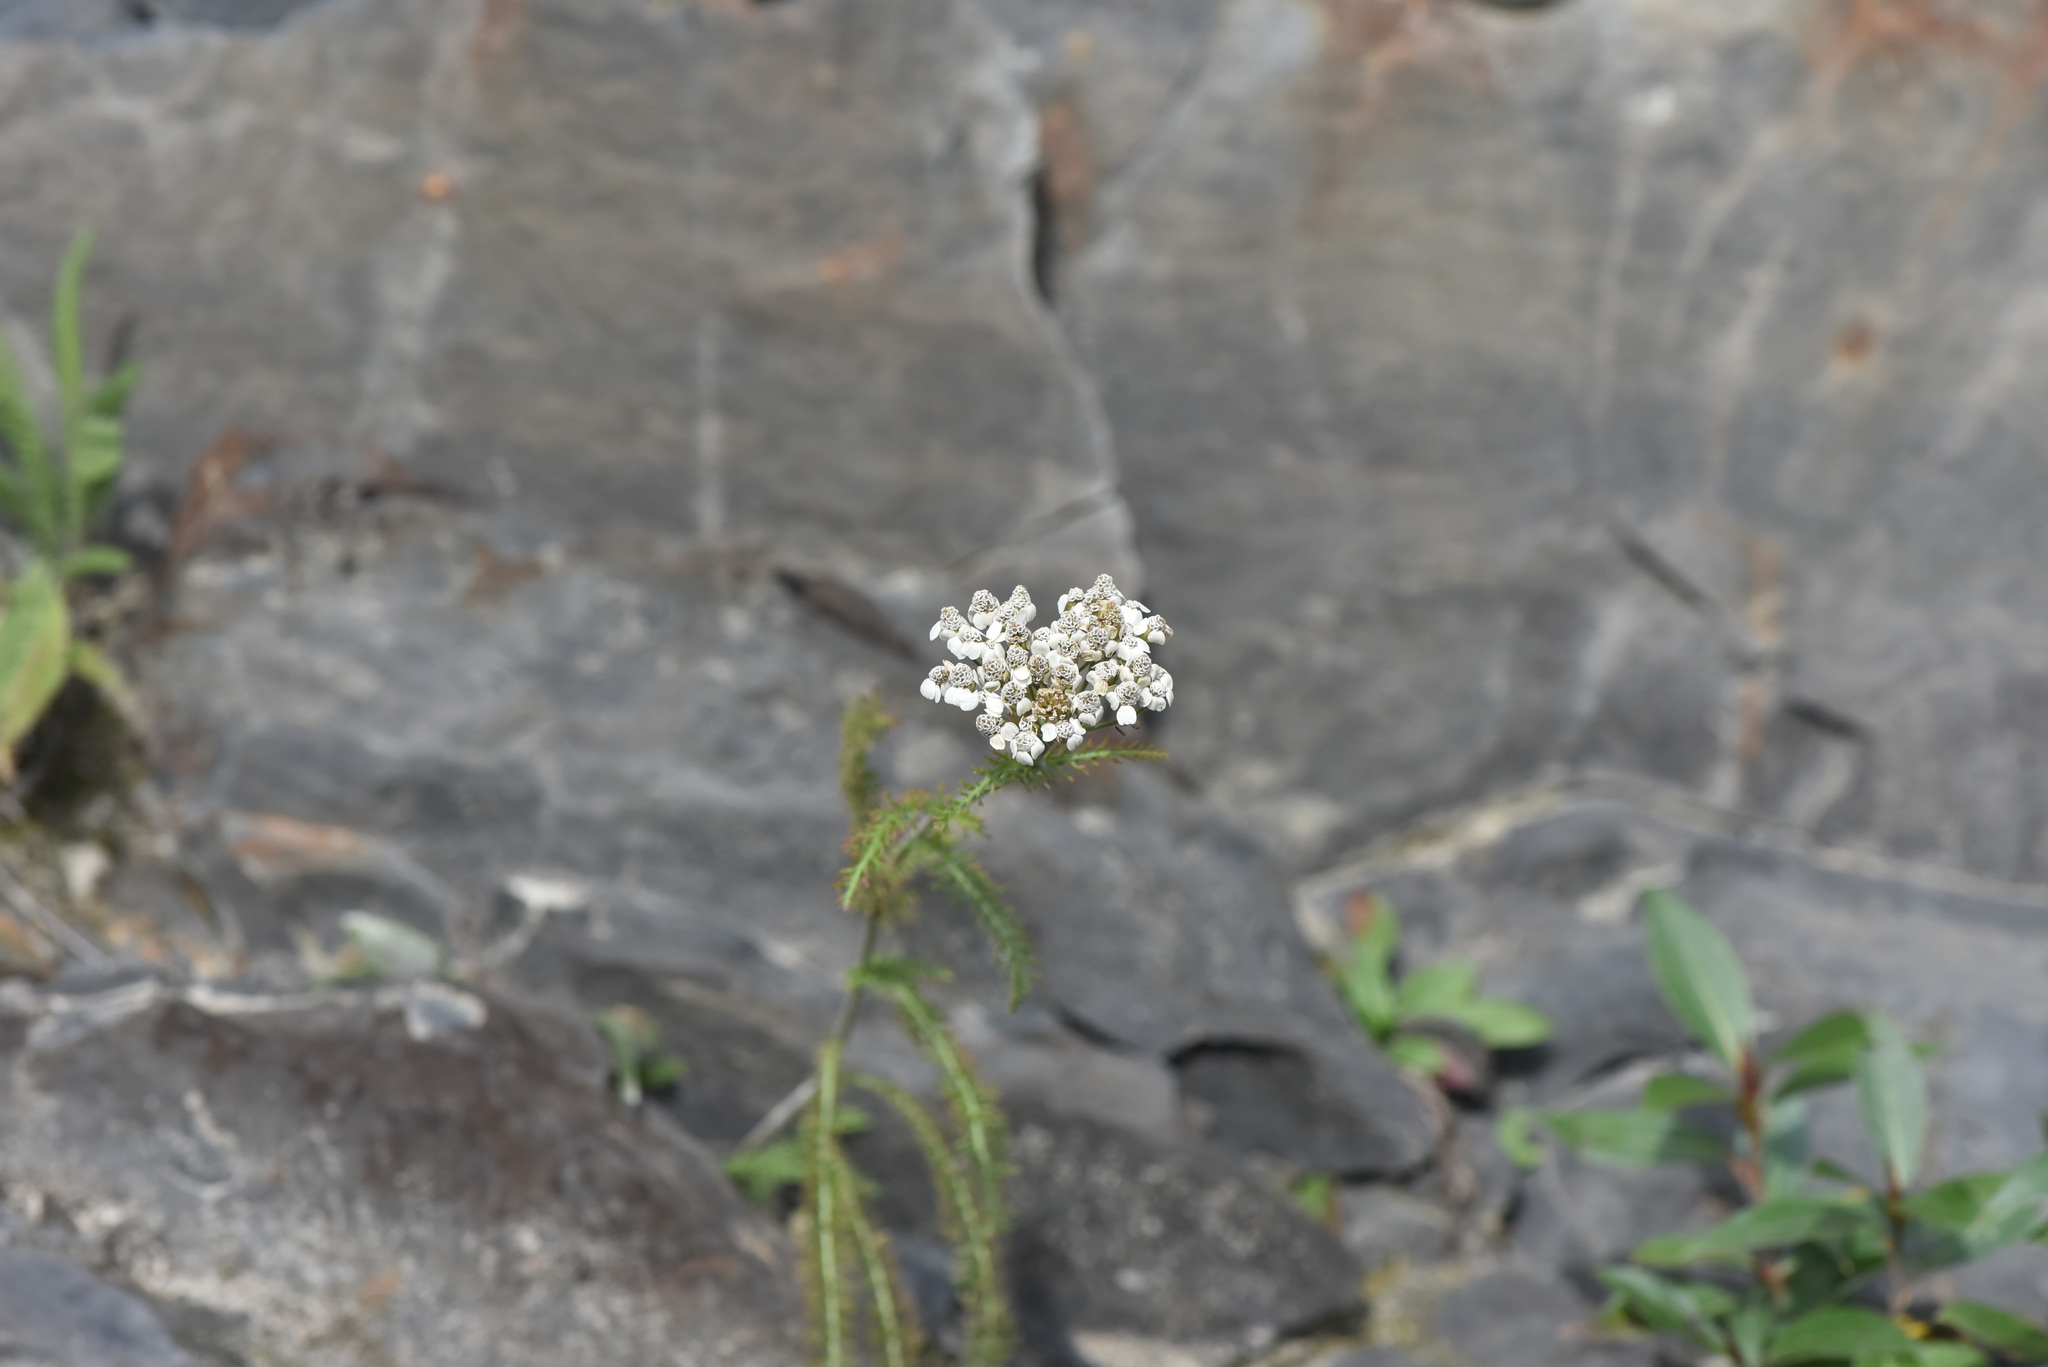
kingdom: Plantae
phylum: Tracheophyta
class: Magnoliopsida
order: Asterales
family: Asteraceae
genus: Achillea
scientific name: Achillea millefolium
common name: Yarrow
